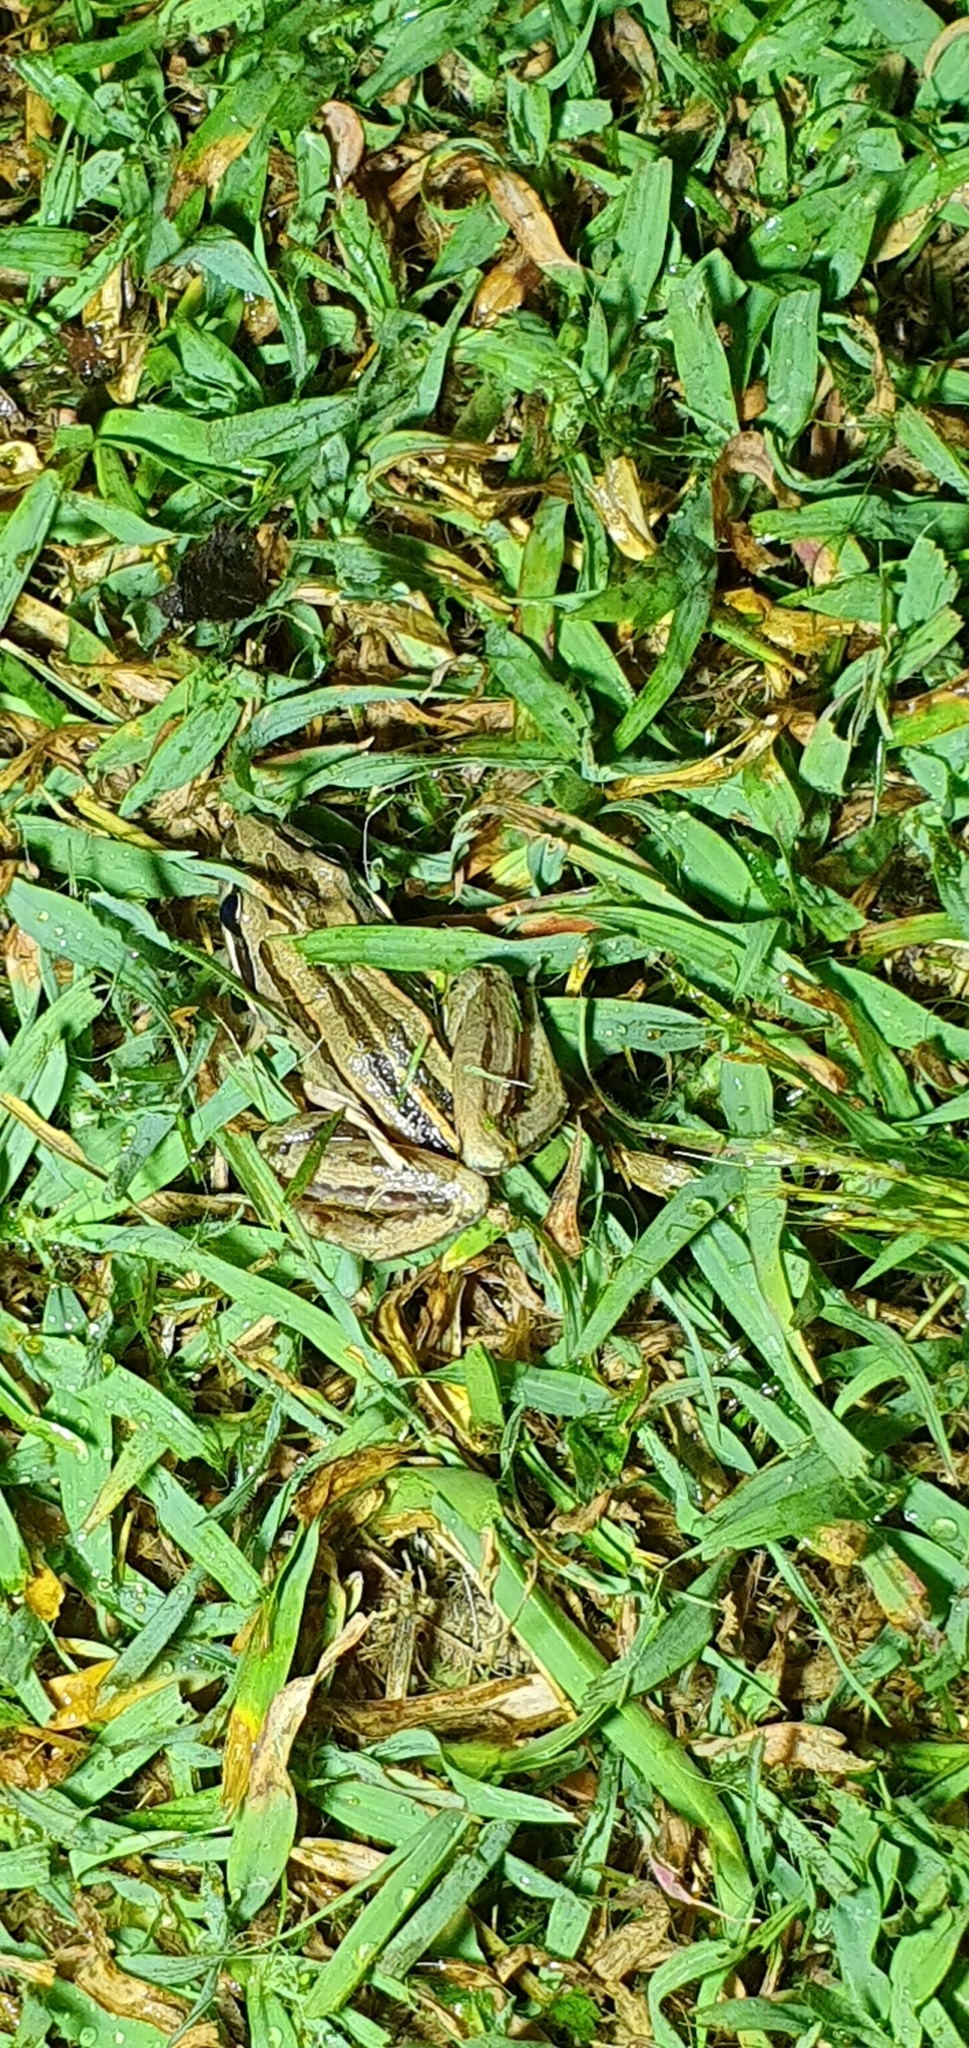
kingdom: Animalia
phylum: Chordata
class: Amphibia
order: Anura
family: Limnodynastidae
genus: Limnodynastes
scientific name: Limnodynastes peronii
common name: Brown frog
